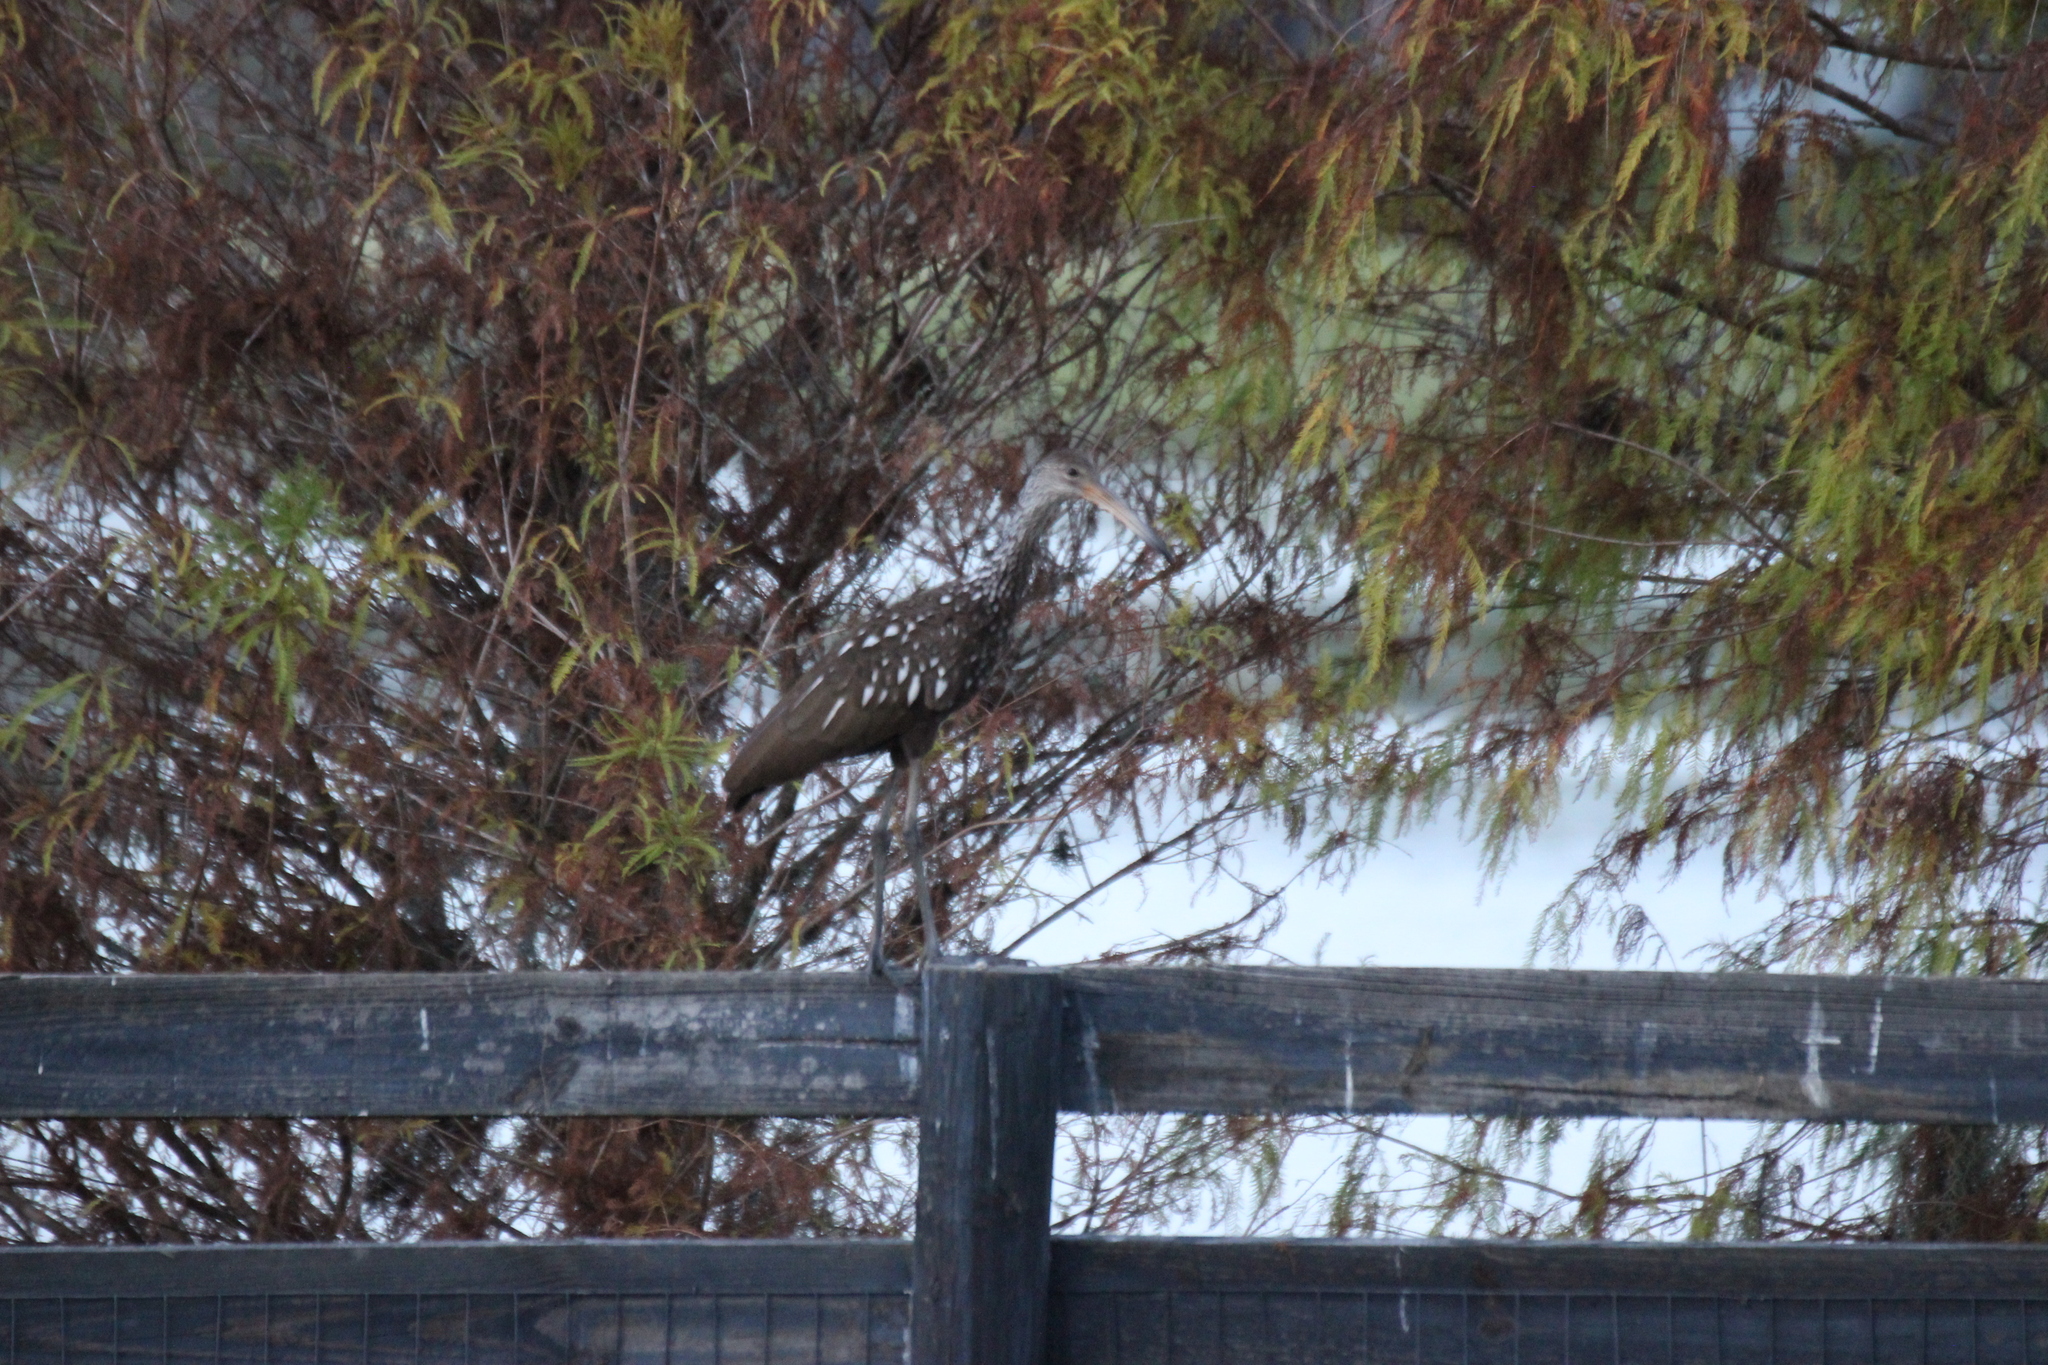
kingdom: Animalia
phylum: Chordata
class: Aves
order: Gruiformes
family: Aramidae
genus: Aramus
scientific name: Aramus guarauna
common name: Limpkin
